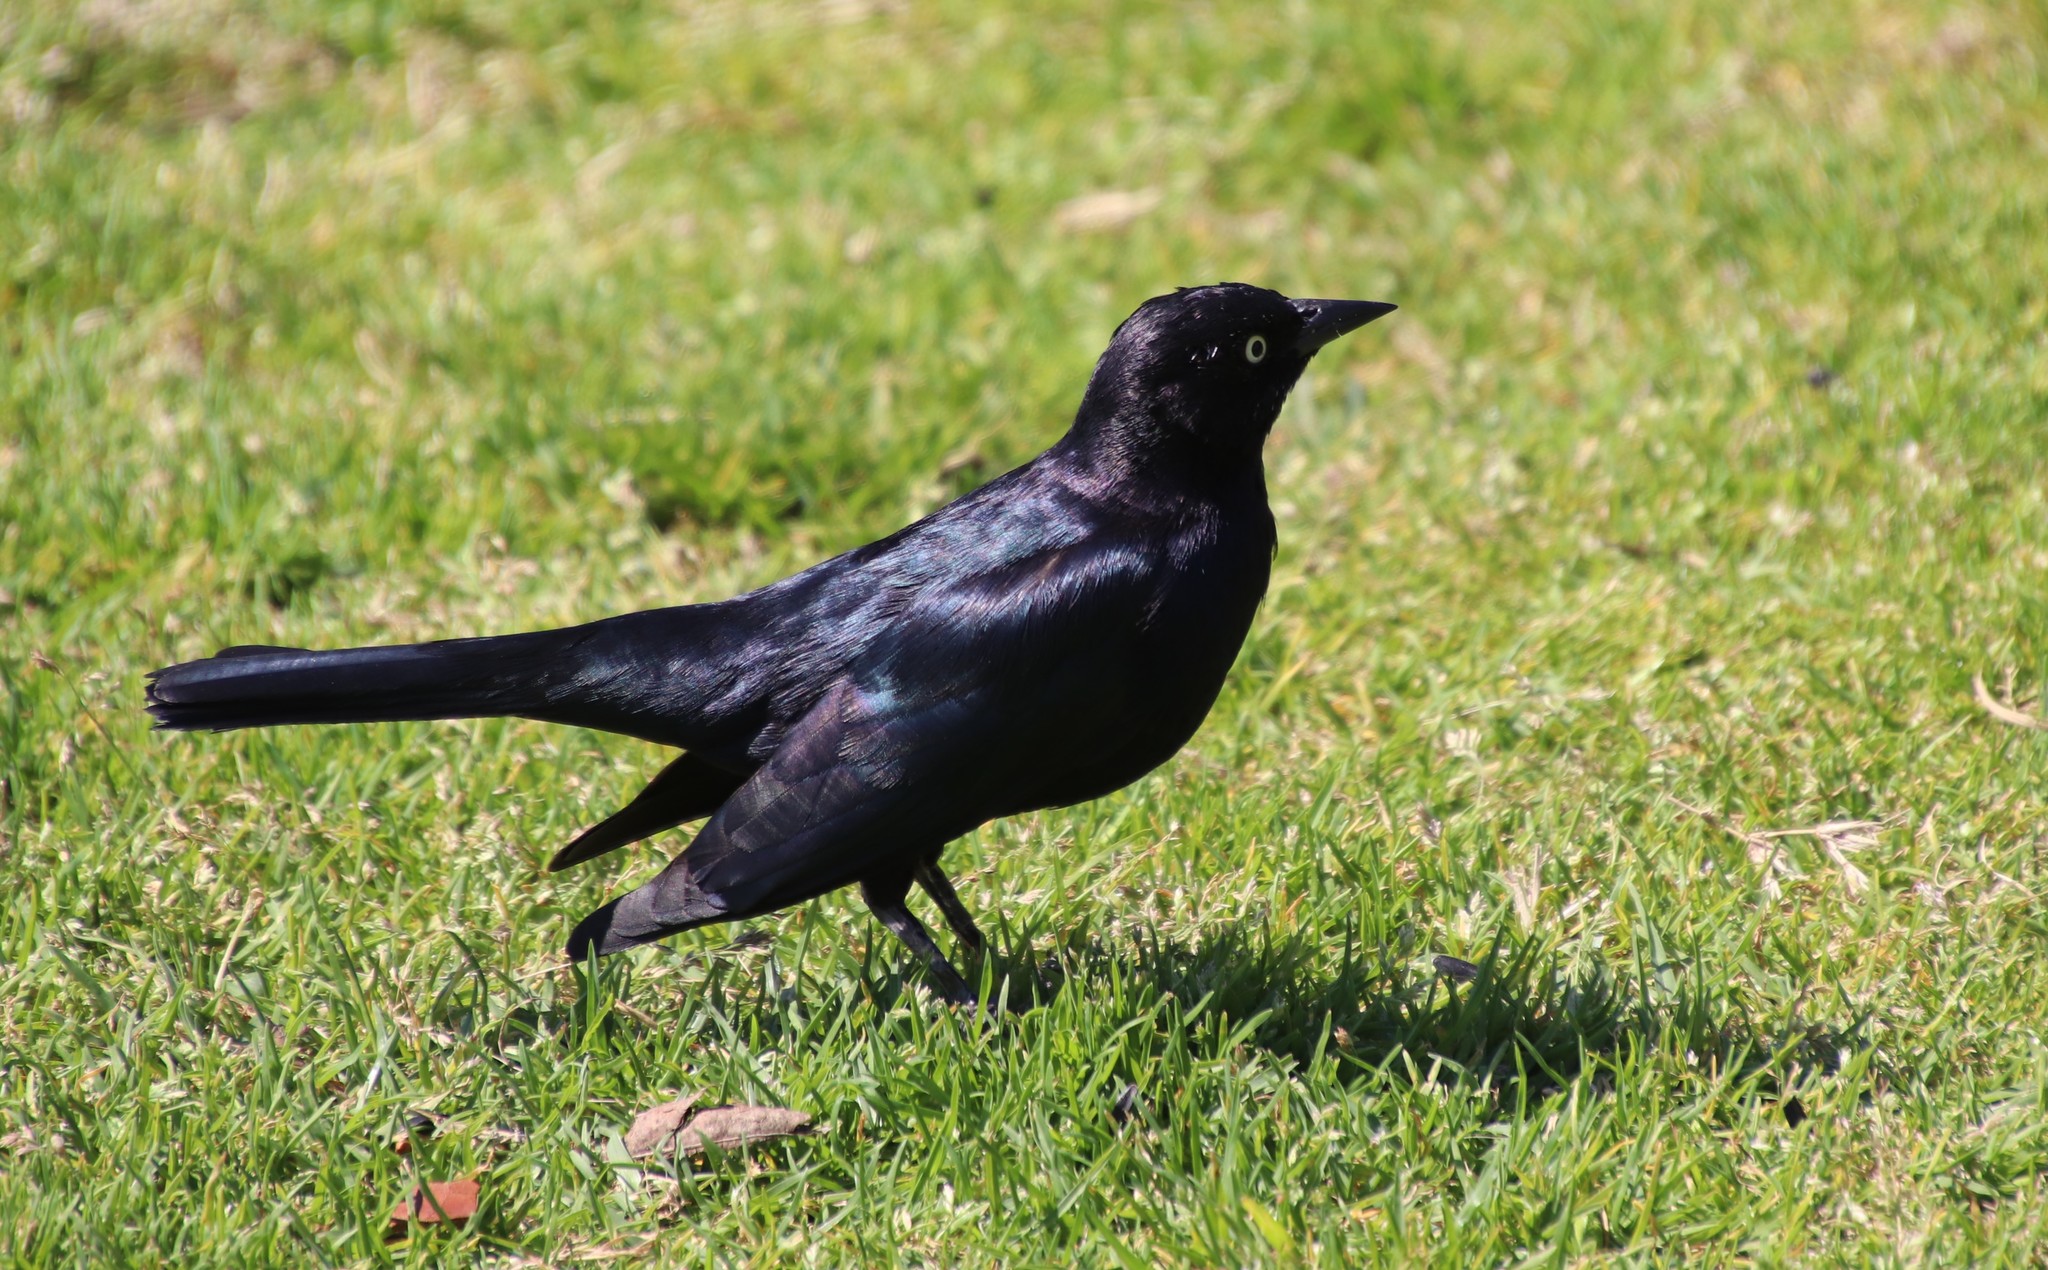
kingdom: Animalia
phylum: Chordata
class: Aves
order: Passeriformes
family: Icteridae
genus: Euphagus
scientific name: Euphagus cyanocephalus
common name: Brewer's blackbird
